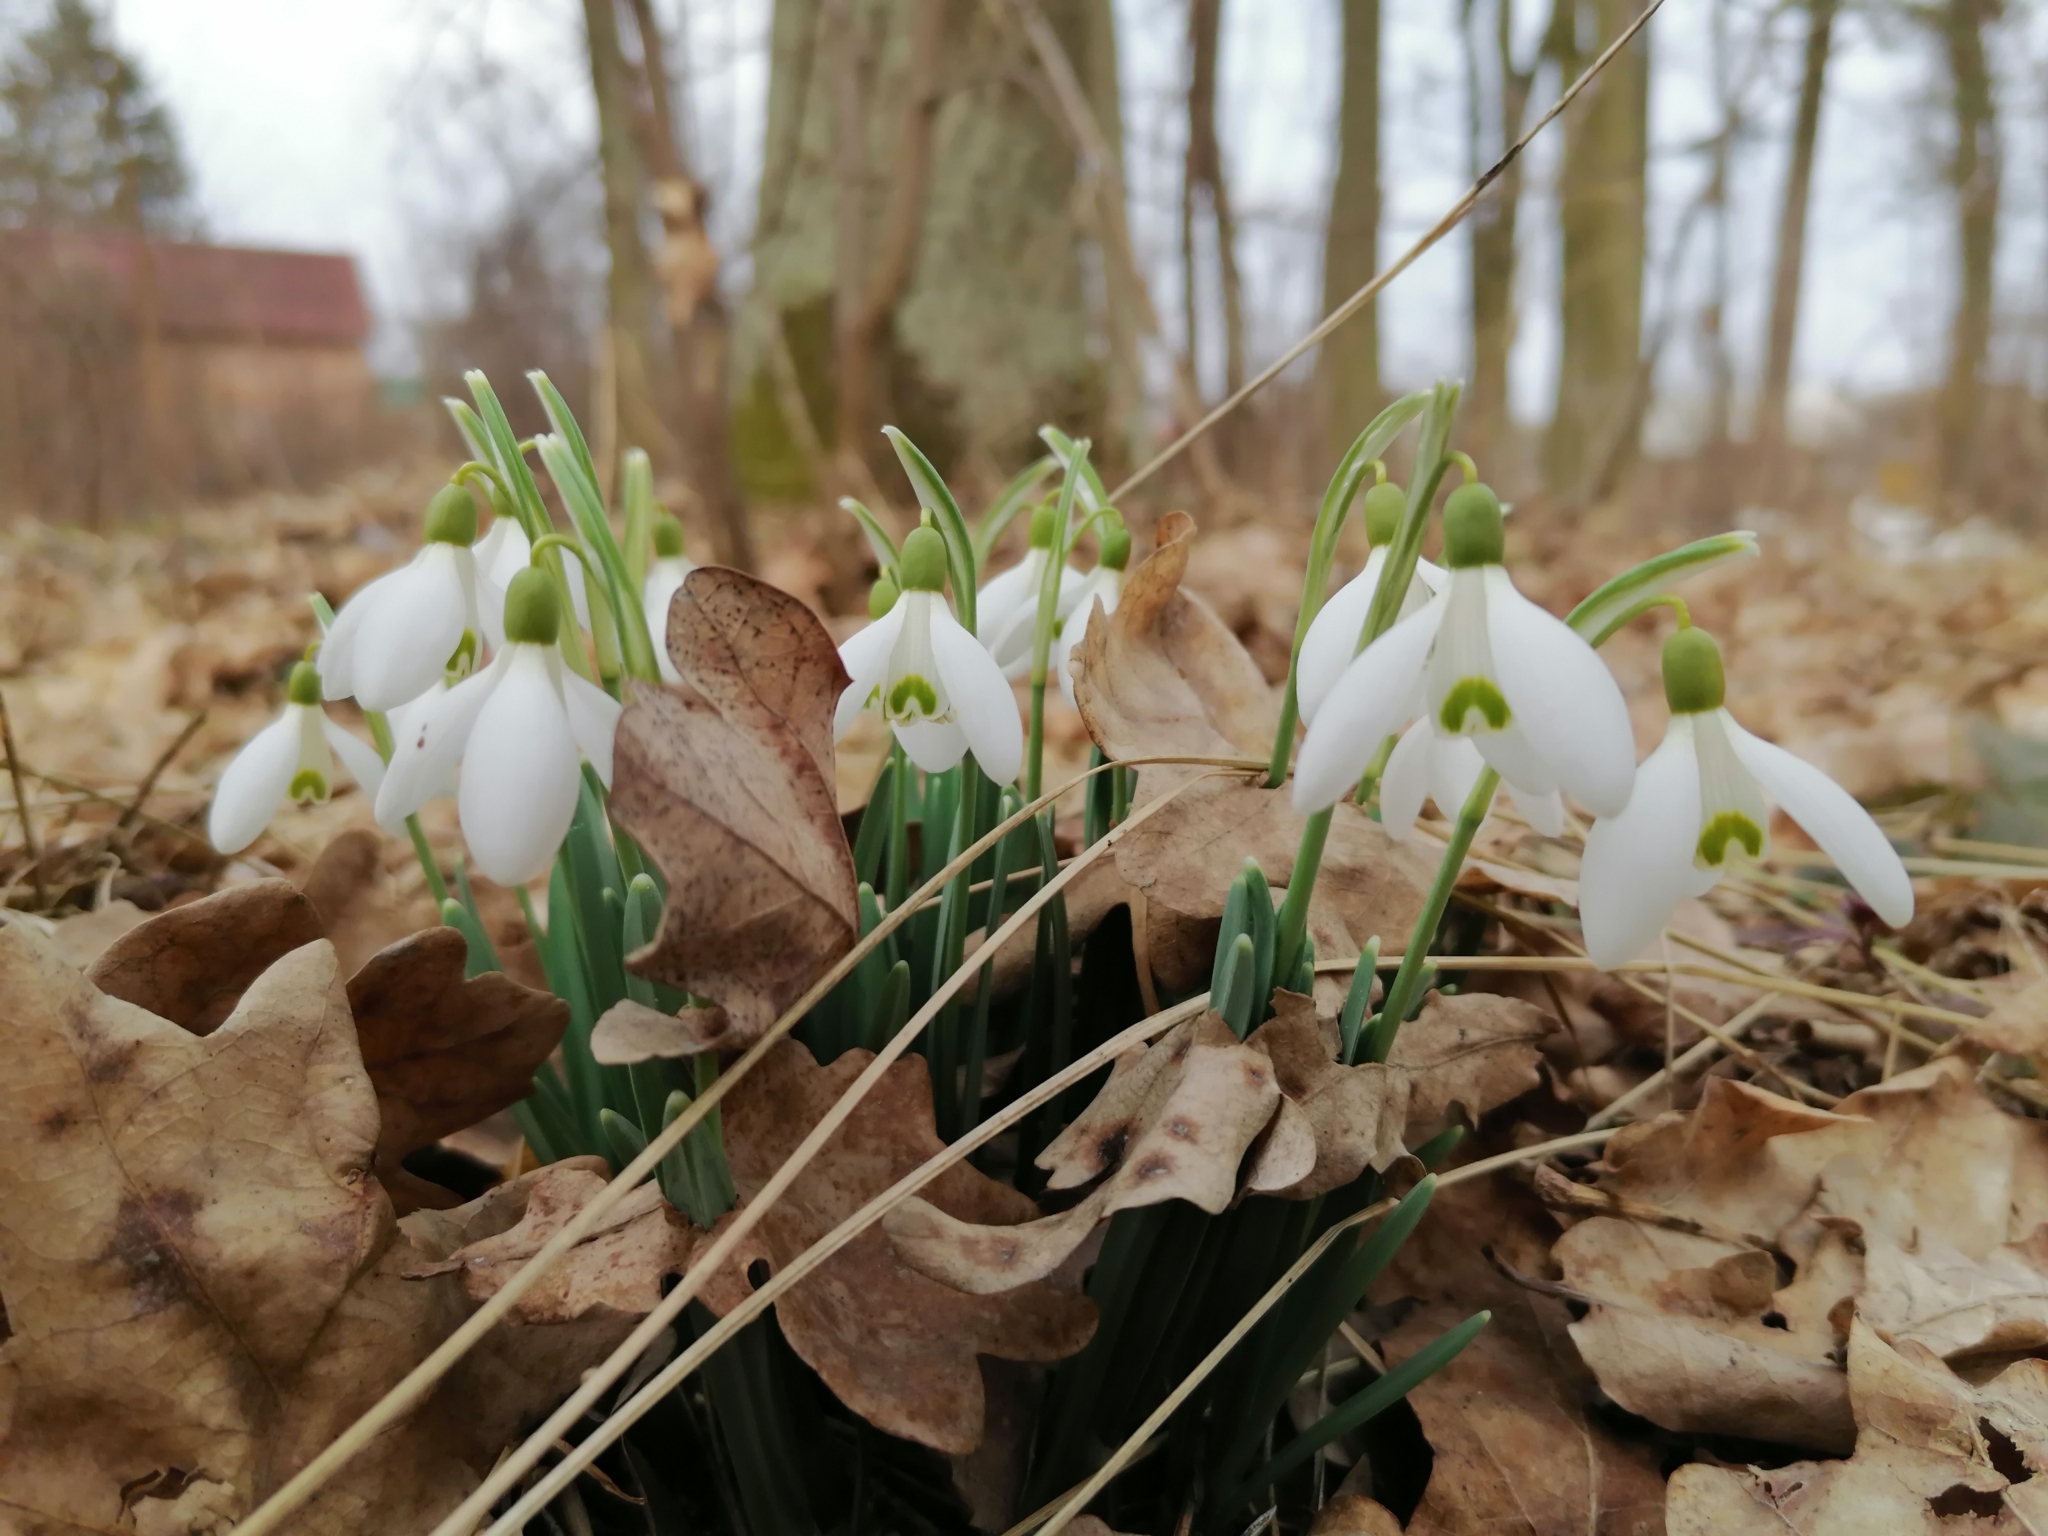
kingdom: Plantae
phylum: Tracheophyta
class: Liliopsida
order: Asparagales
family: Amaryllidaceae
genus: Galanthus
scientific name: Galanthus nivalis
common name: Snowdrop
